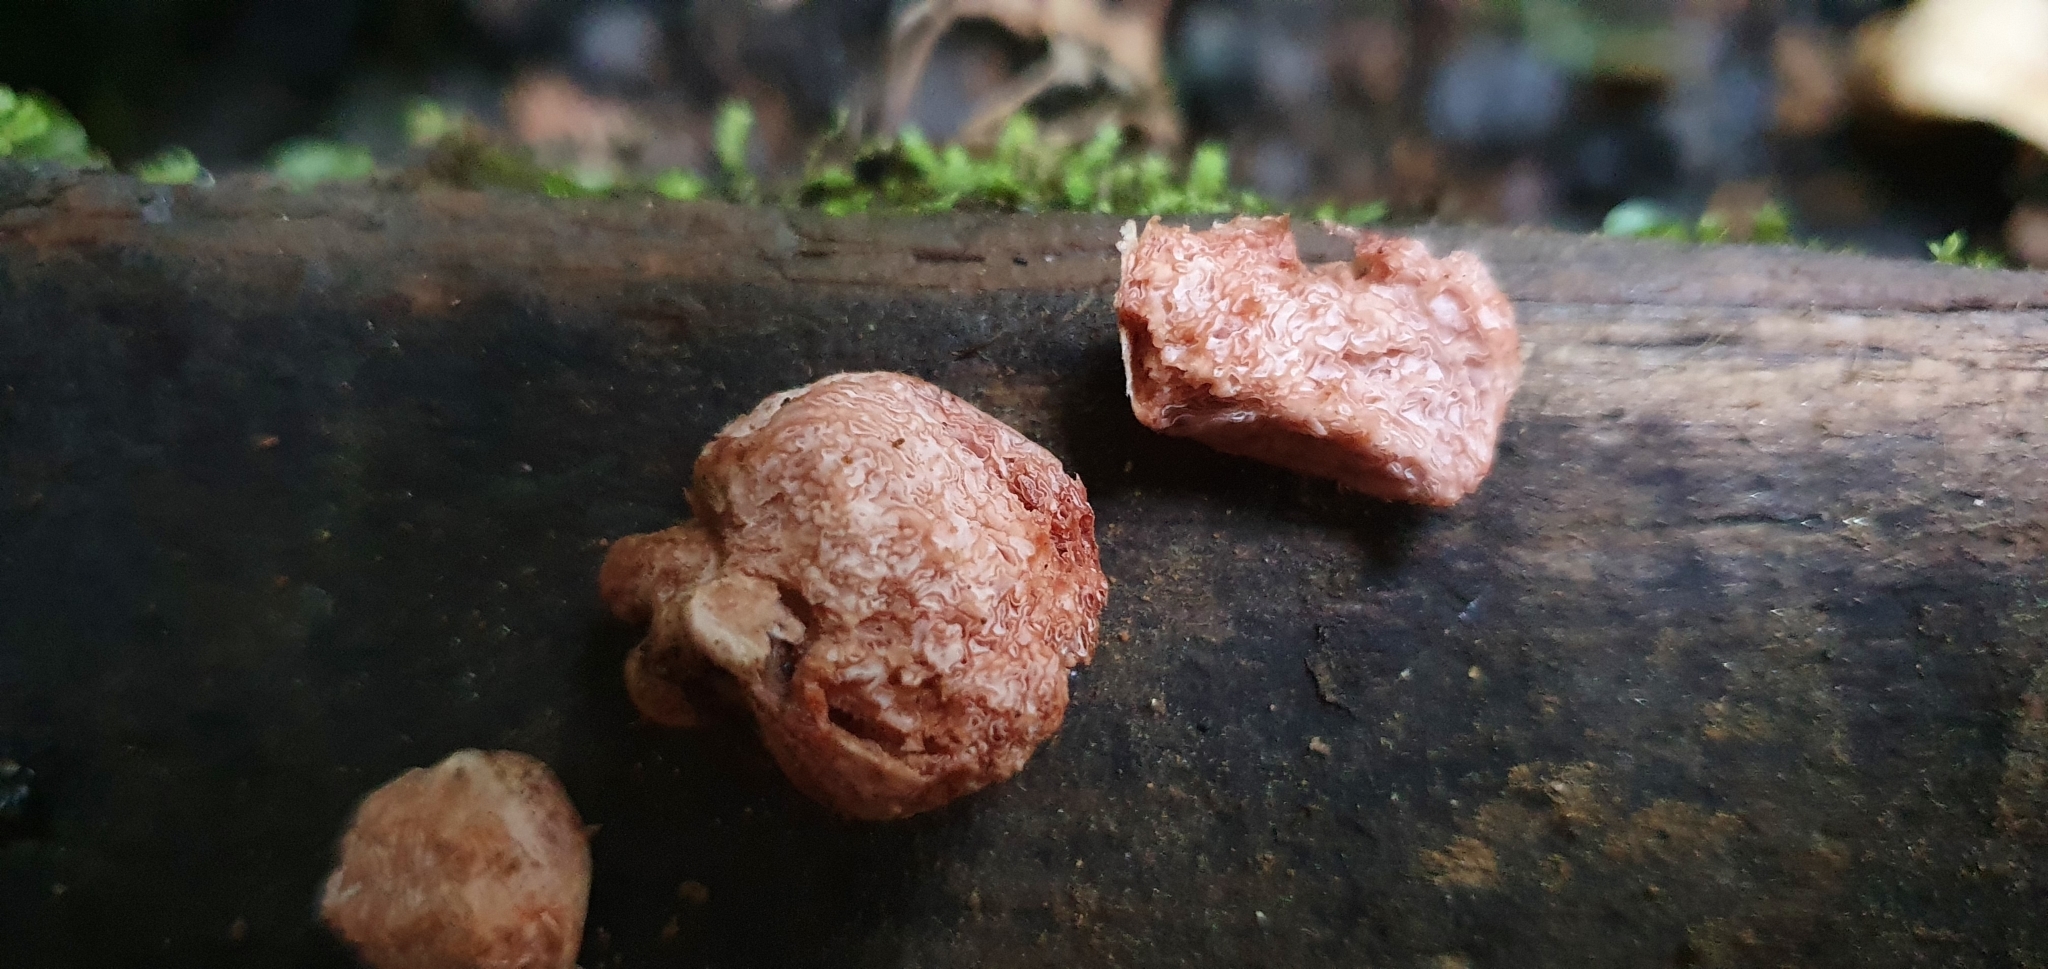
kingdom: Fungi
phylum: Basidiomycota
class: Agaricomycetes
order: Agaricales
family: Hydnangiaceae
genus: Hydnangium
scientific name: Hydnangium kanuka
